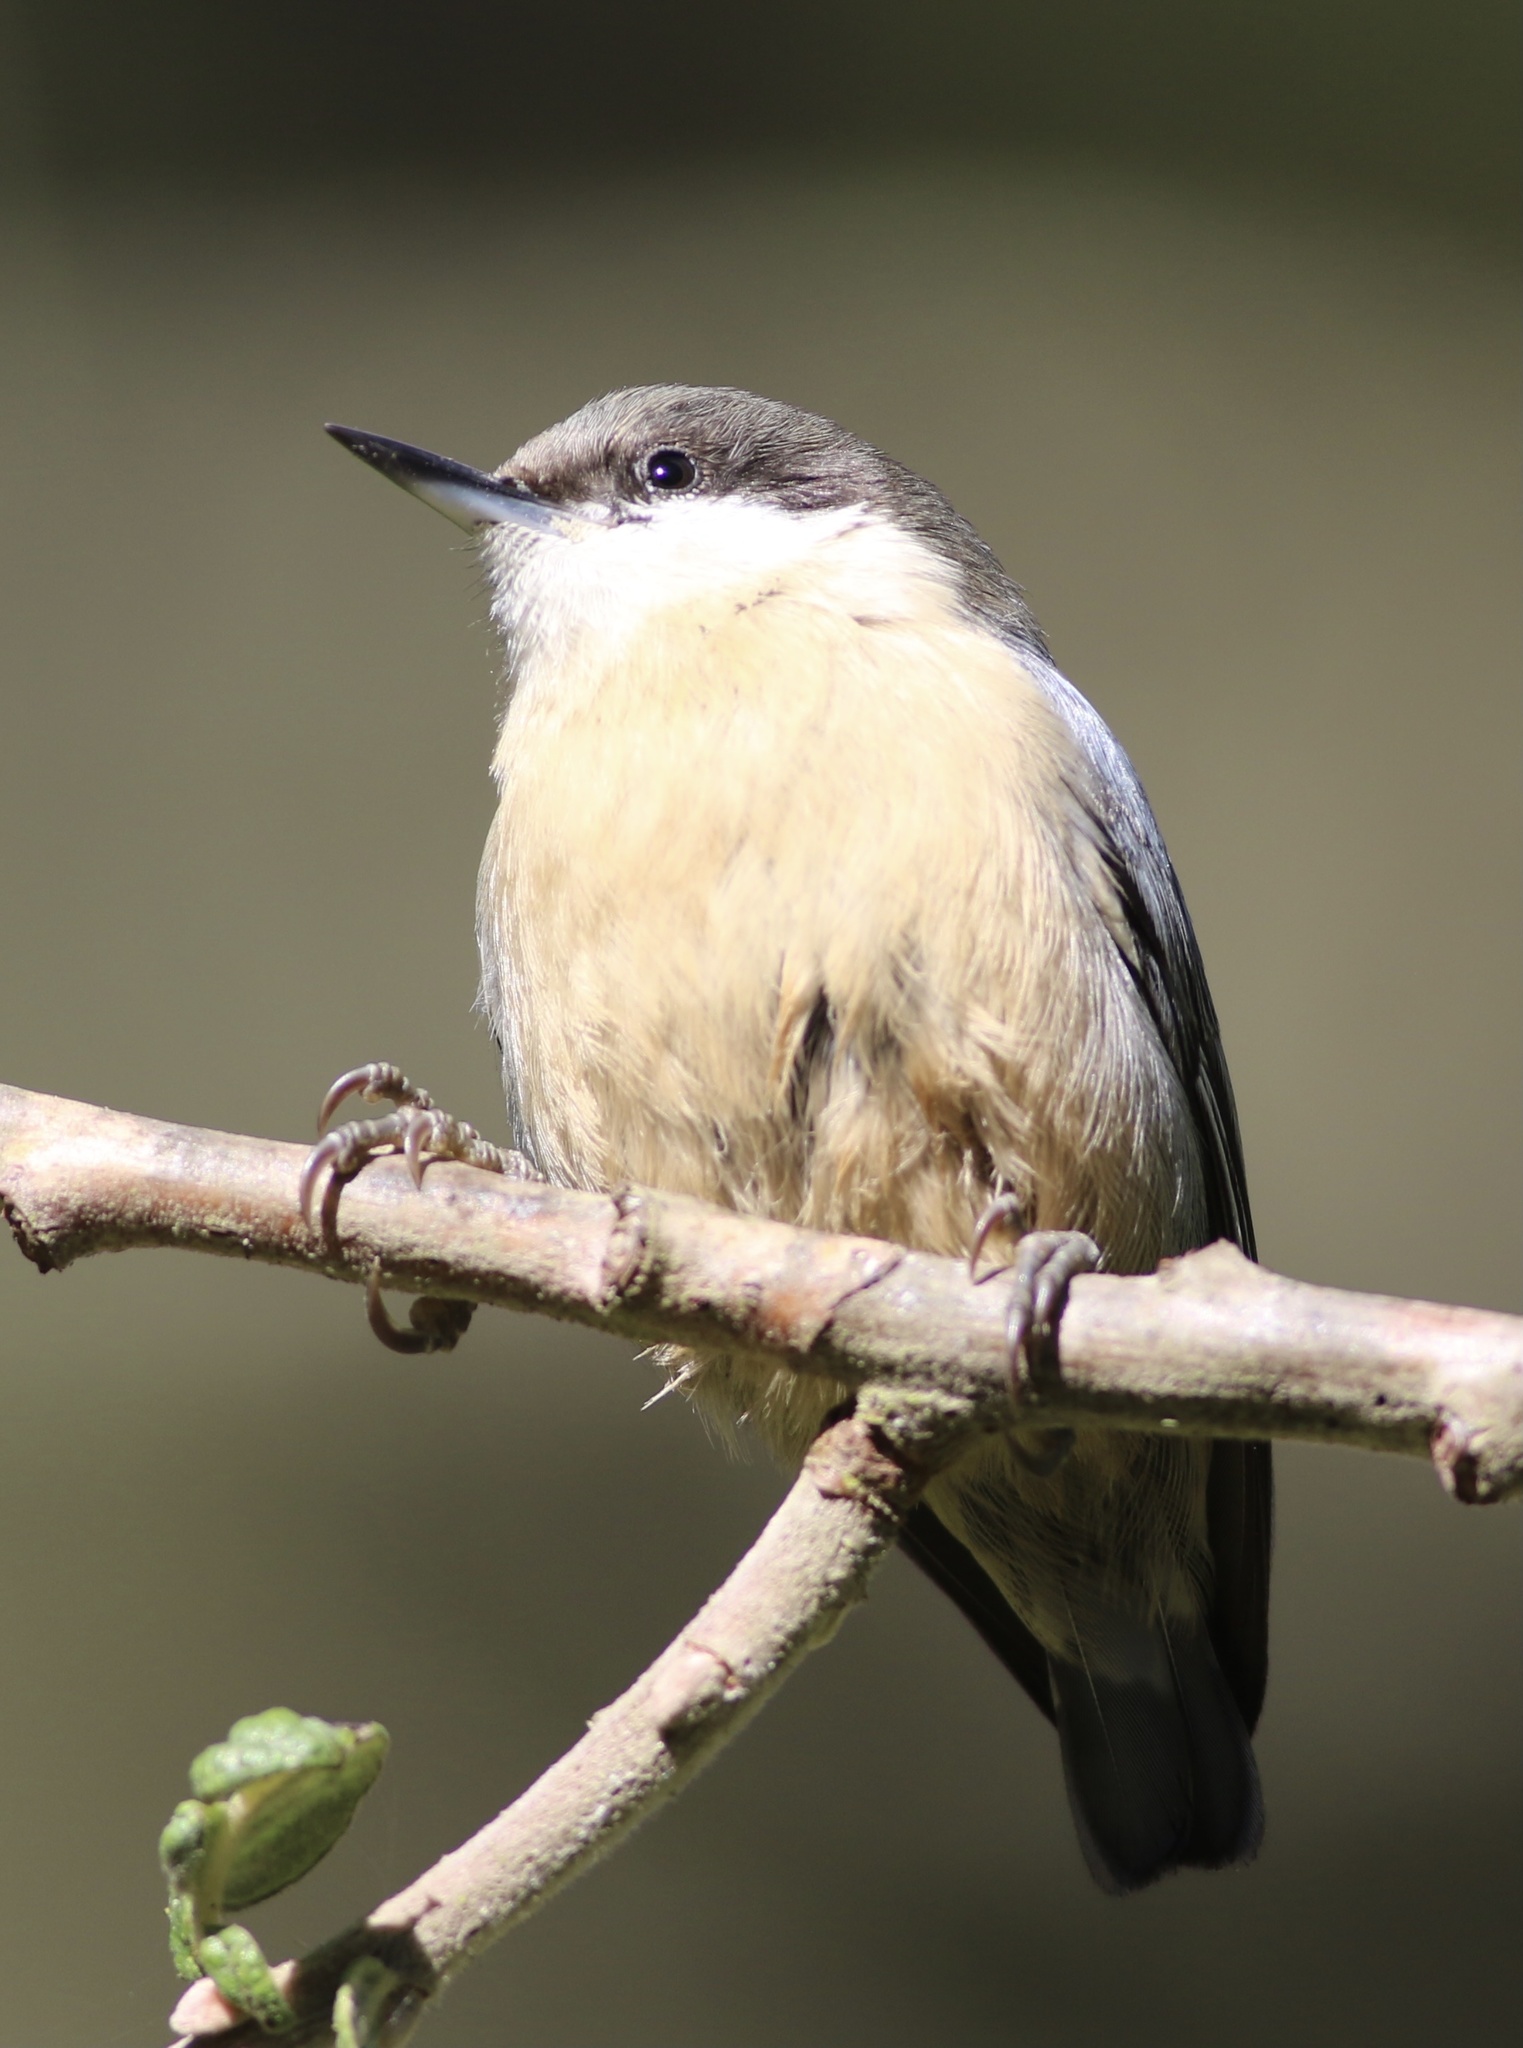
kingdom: Animalia
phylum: Chordata
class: Aves
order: Passeriformes
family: Sittidae
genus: Sitta
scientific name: Sitta pygmaea
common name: Pygmy nuthatch
